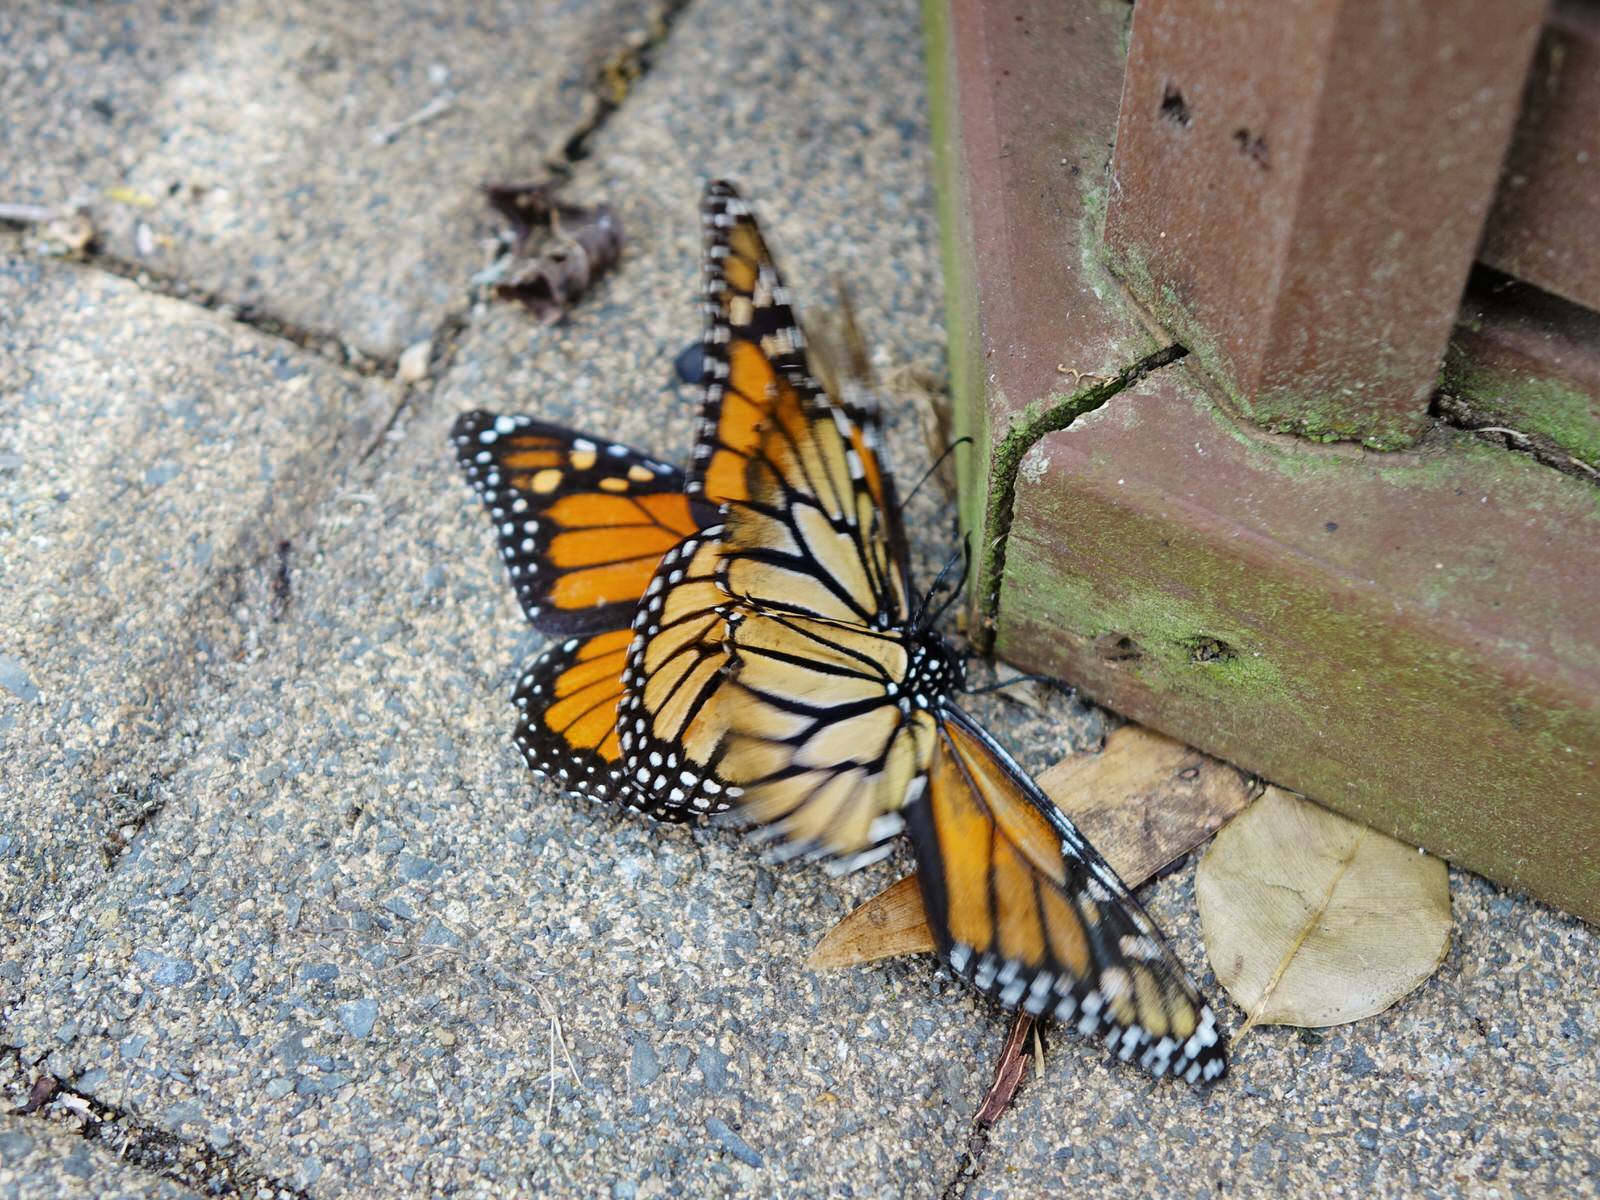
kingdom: Animalia
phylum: Arthropoda
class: Insecta
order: Lepidoptera
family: Nymphalidae
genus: Danaus
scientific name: Danaus plexippus
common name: Monarch
